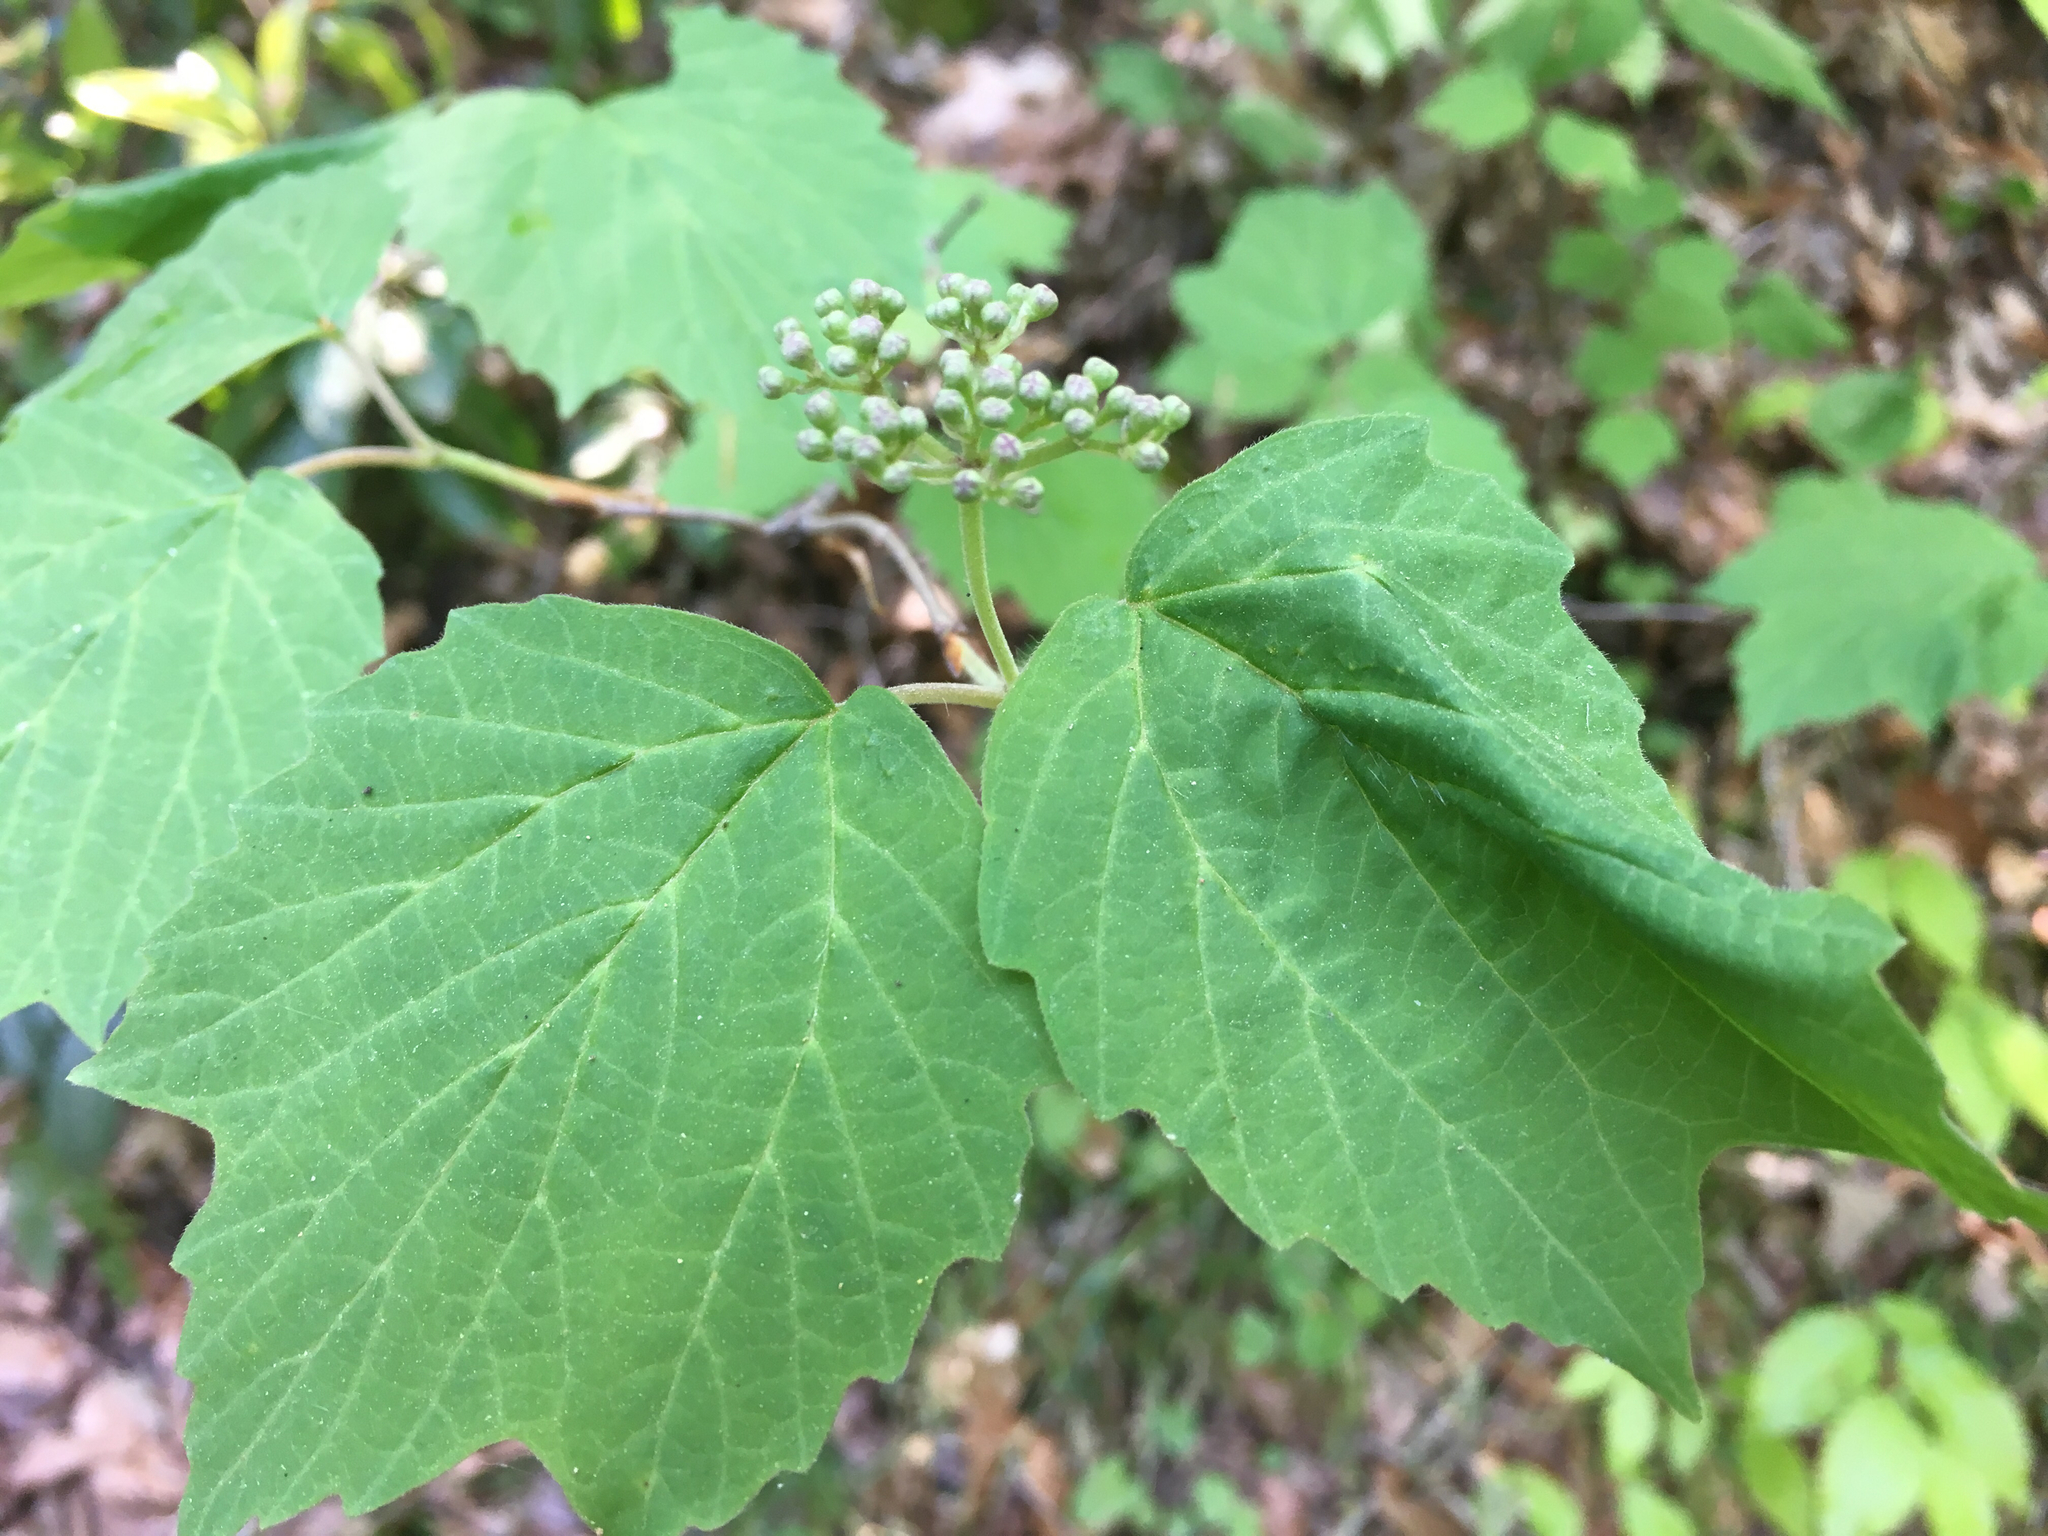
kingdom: Plantae
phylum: Tracheophyta
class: Magnoliopsida
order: Dipsacales
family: Viburnaceae
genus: Viburnum
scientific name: Viburnum acerifolium
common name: Dockmackie
